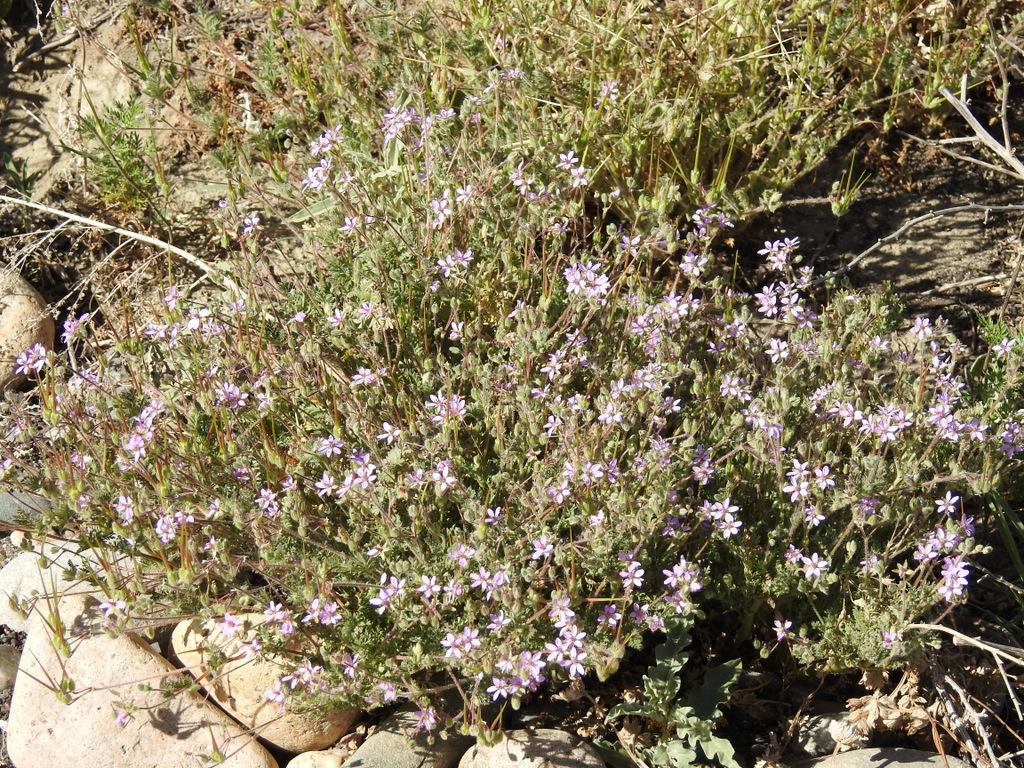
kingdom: Plantae
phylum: Tracheophyta
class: Magnoliopsida
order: Geraniales
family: Geraniaceae
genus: Erodium
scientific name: Erodium cicutarium
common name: Common stork's-bill
